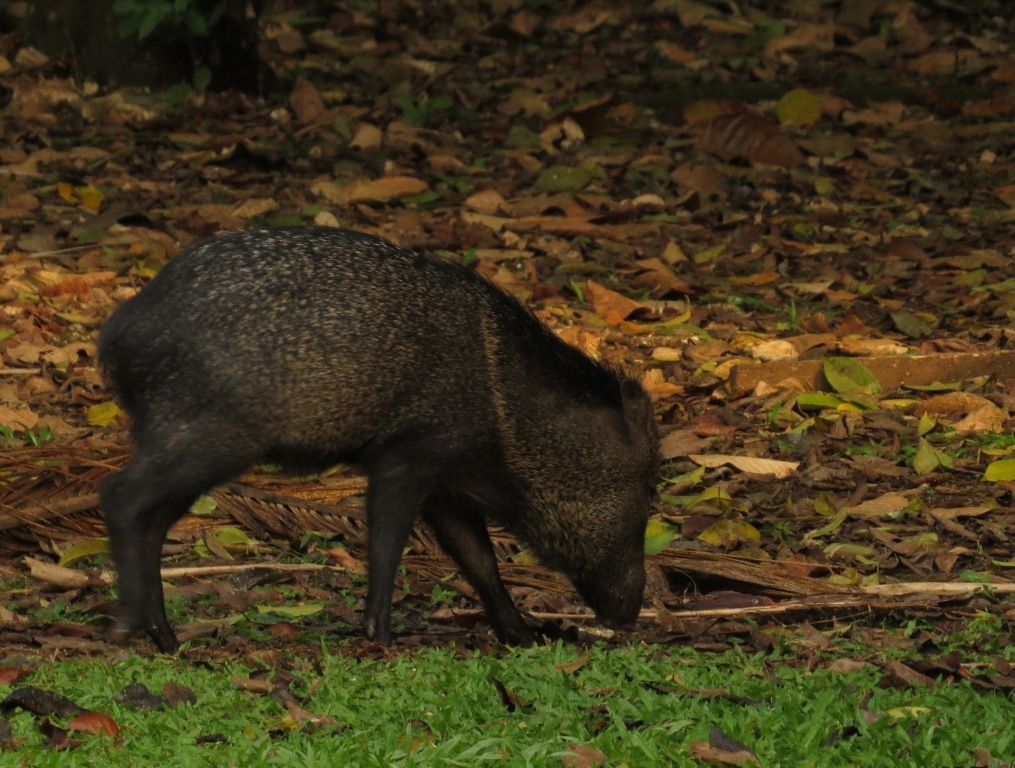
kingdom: Animalia
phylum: Chordata
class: Mammalia
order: Artiodactyla
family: Tayassuidae
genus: Pecari
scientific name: Pecari tajacu
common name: Collared peccary
